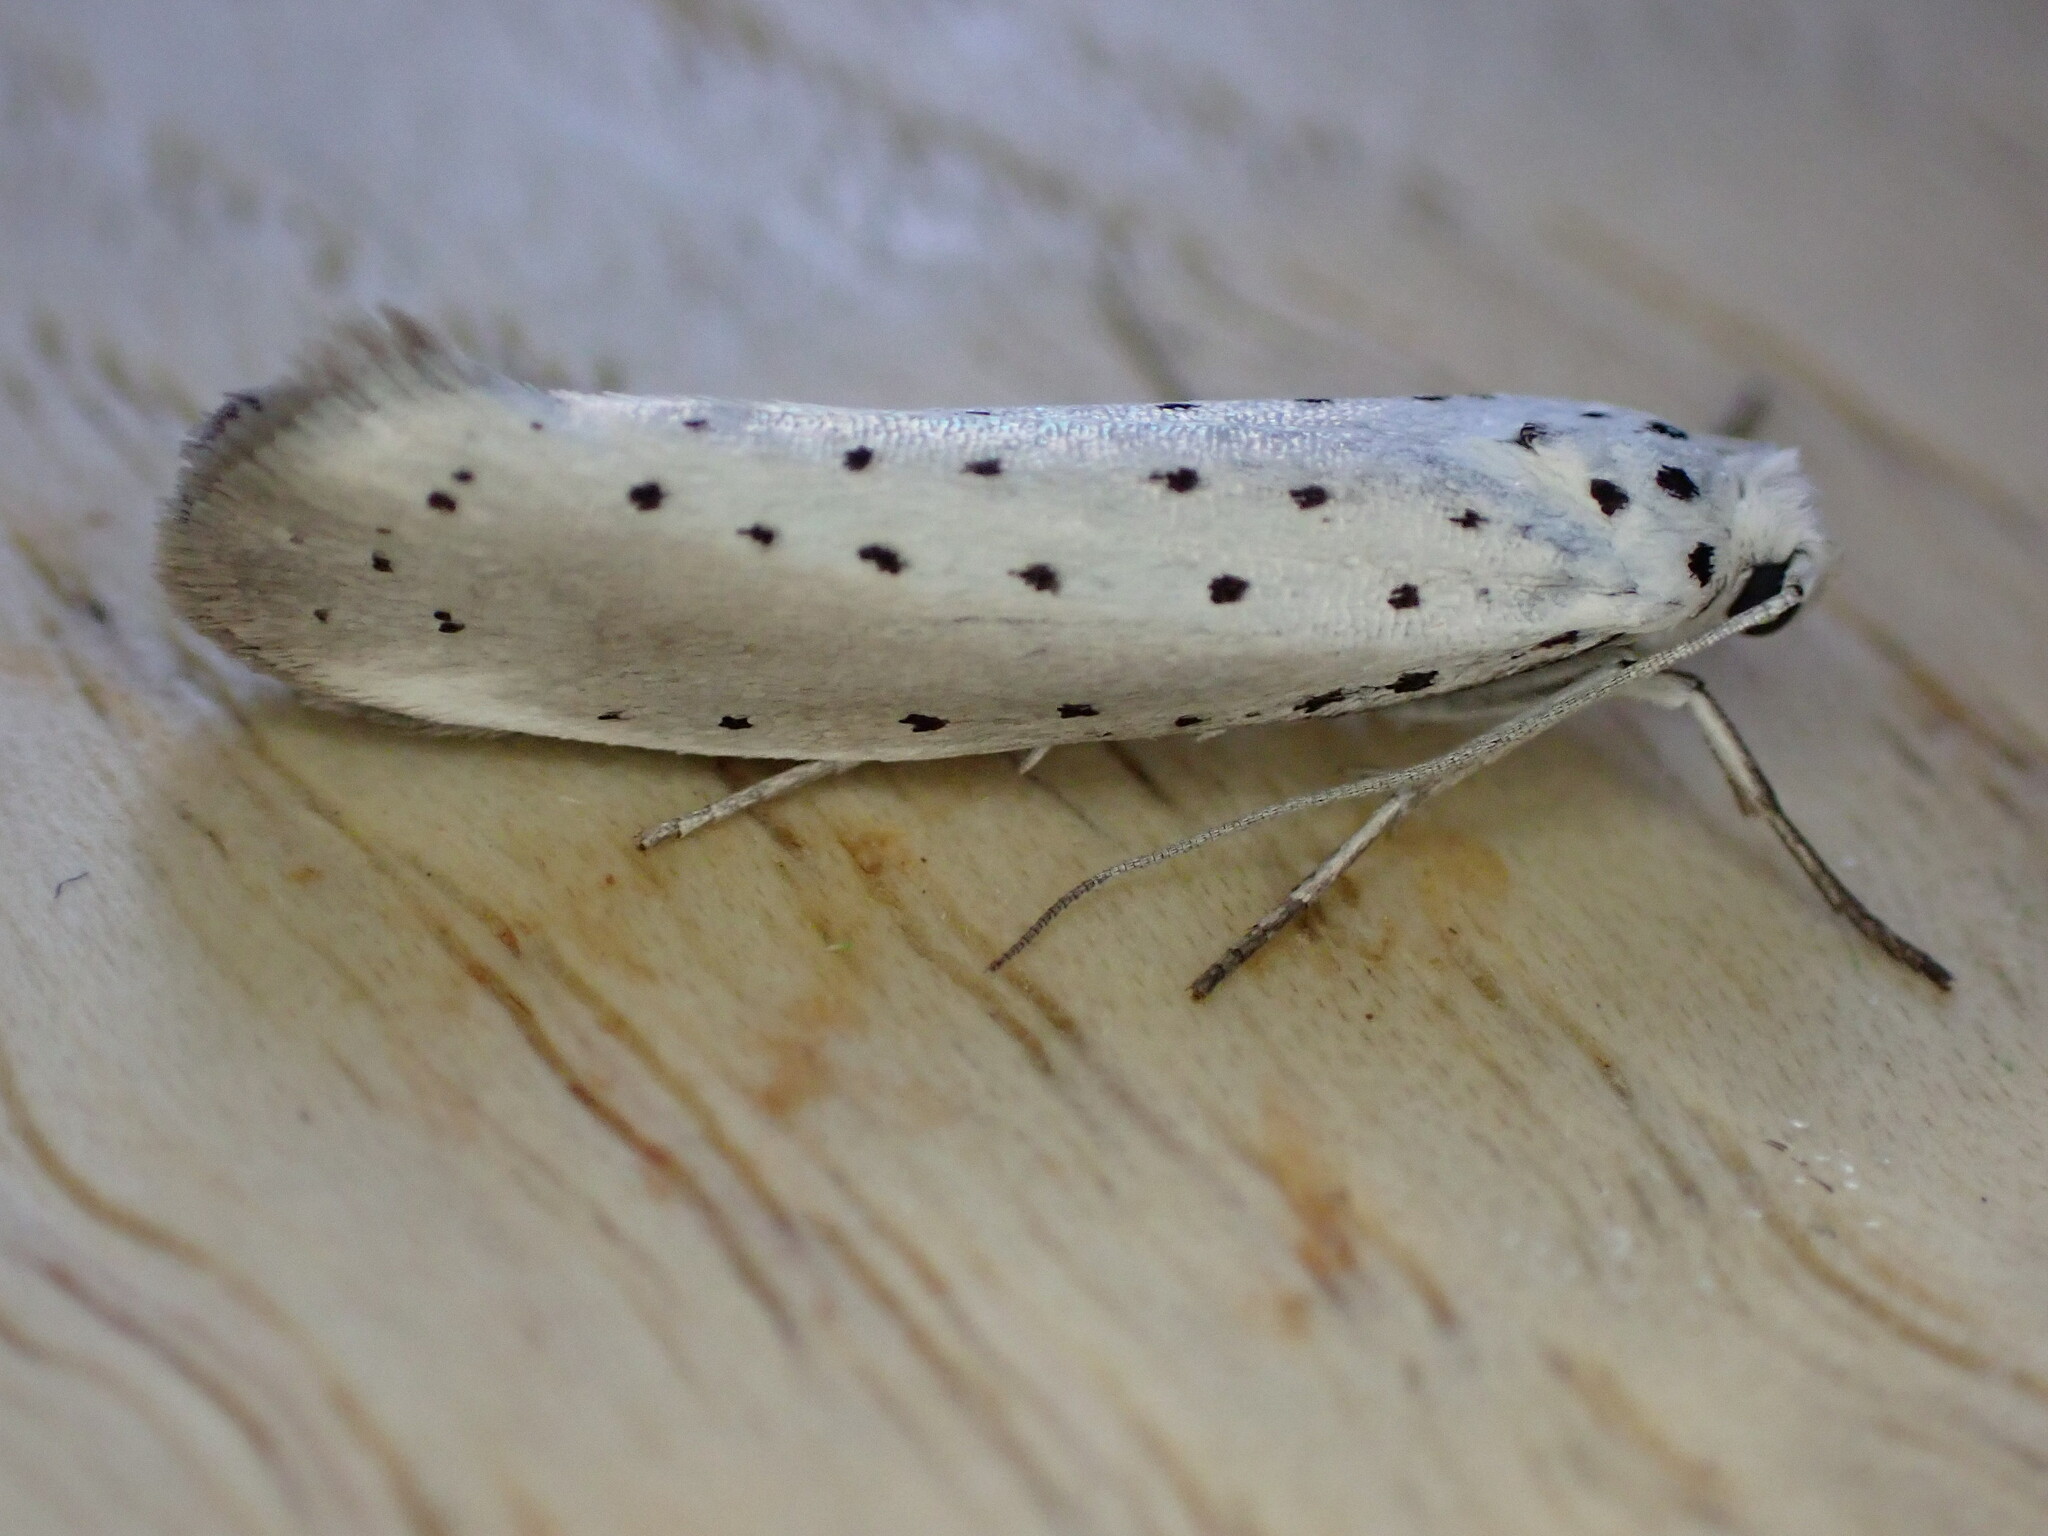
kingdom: Animalia
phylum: Arthropoda
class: Insecta
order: Lepidoptera
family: Yponomeutidae
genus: Yponomeuta
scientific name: Yponomeuta padella
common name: Orchard ermine
